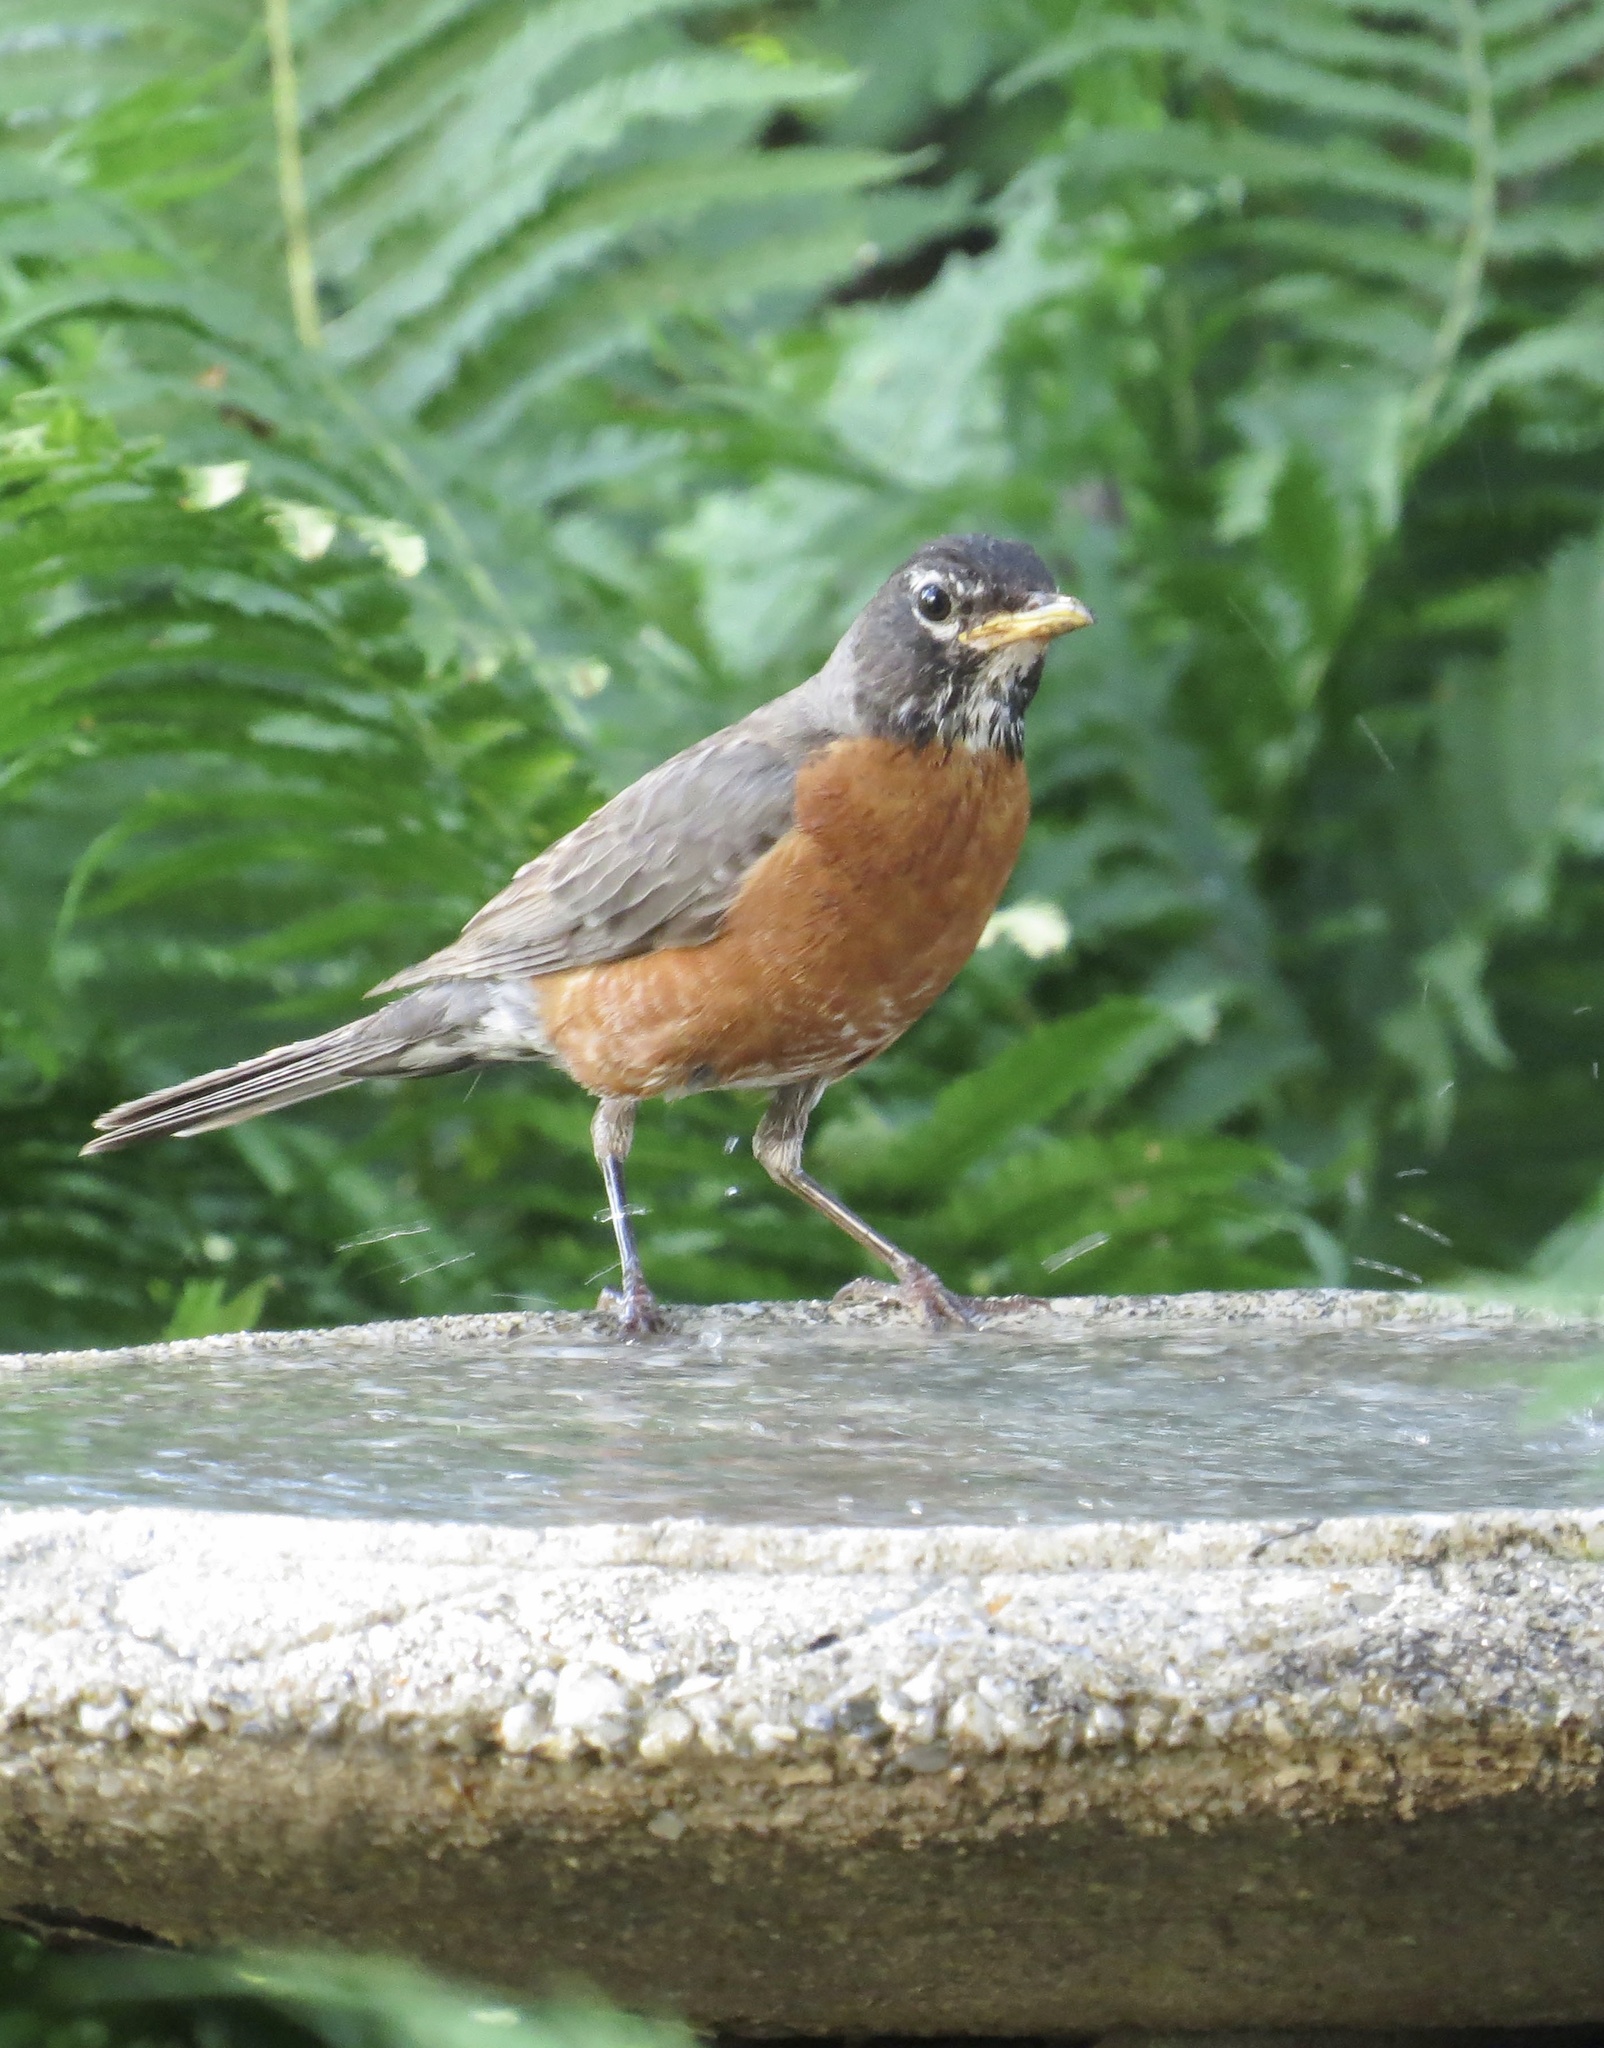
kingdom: Animalia
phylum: Chordata
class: Aves
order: Passeriformes
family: Turdidae
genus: Turdus
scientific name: Turdus migratorius
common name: American robin
